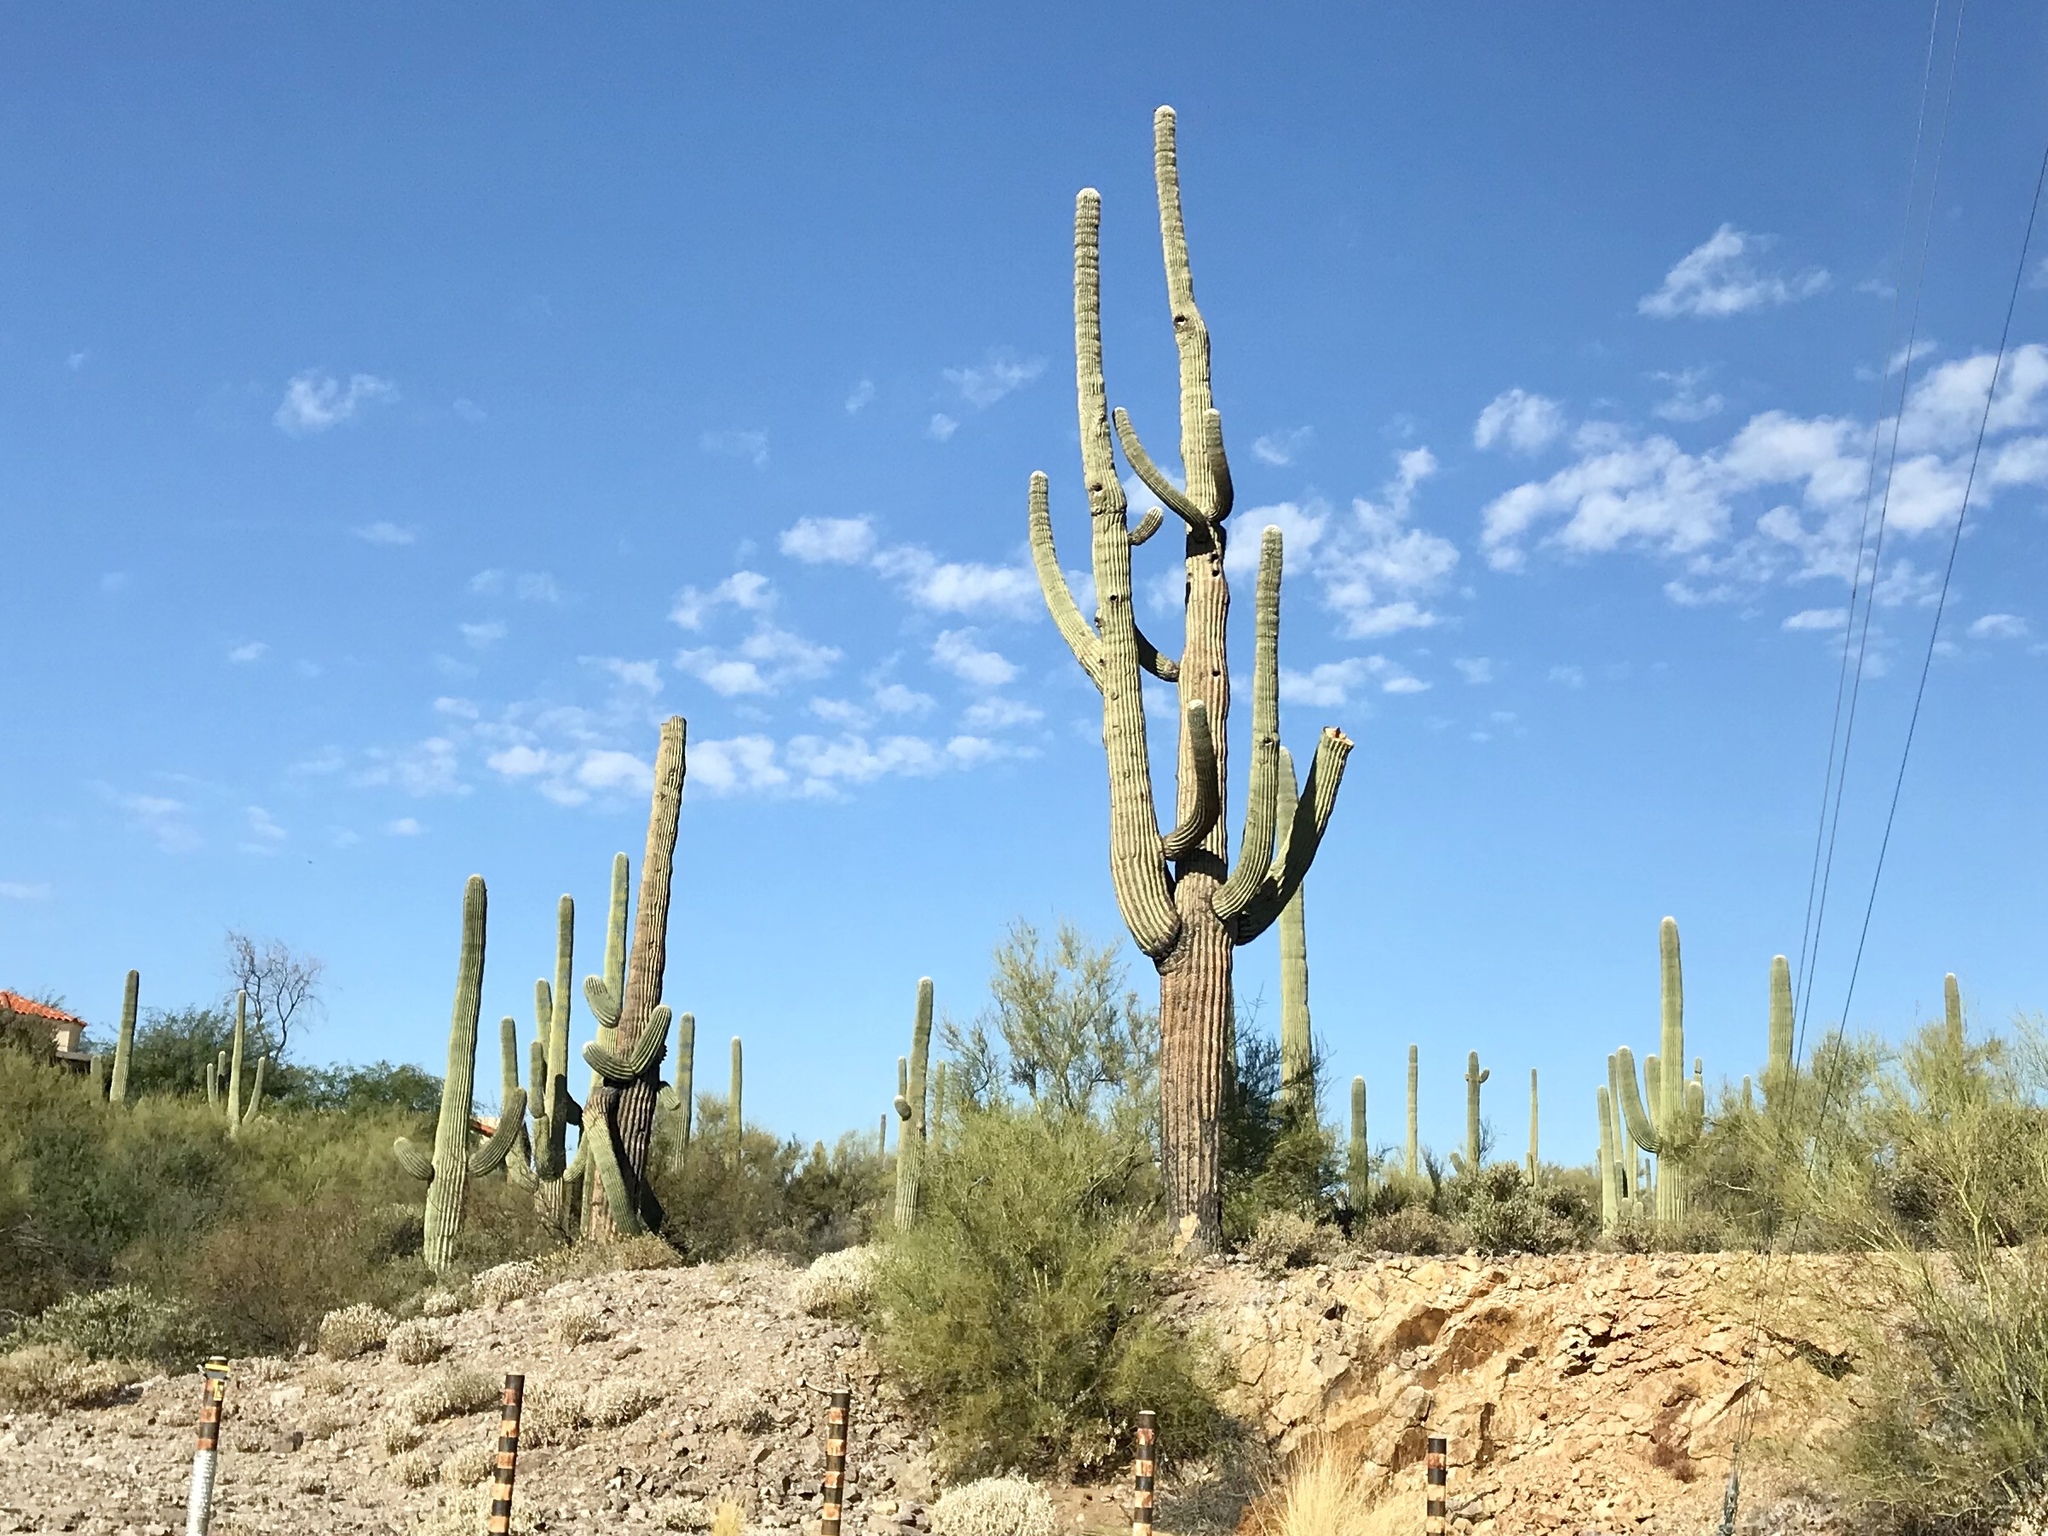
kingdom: Plantae
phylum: Tracheophyta
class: Magnoliopsida
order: Caryophyllales
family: Cactaceae
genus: Carnegiea
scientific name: Carnegiea gigantea
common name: Saguaro
